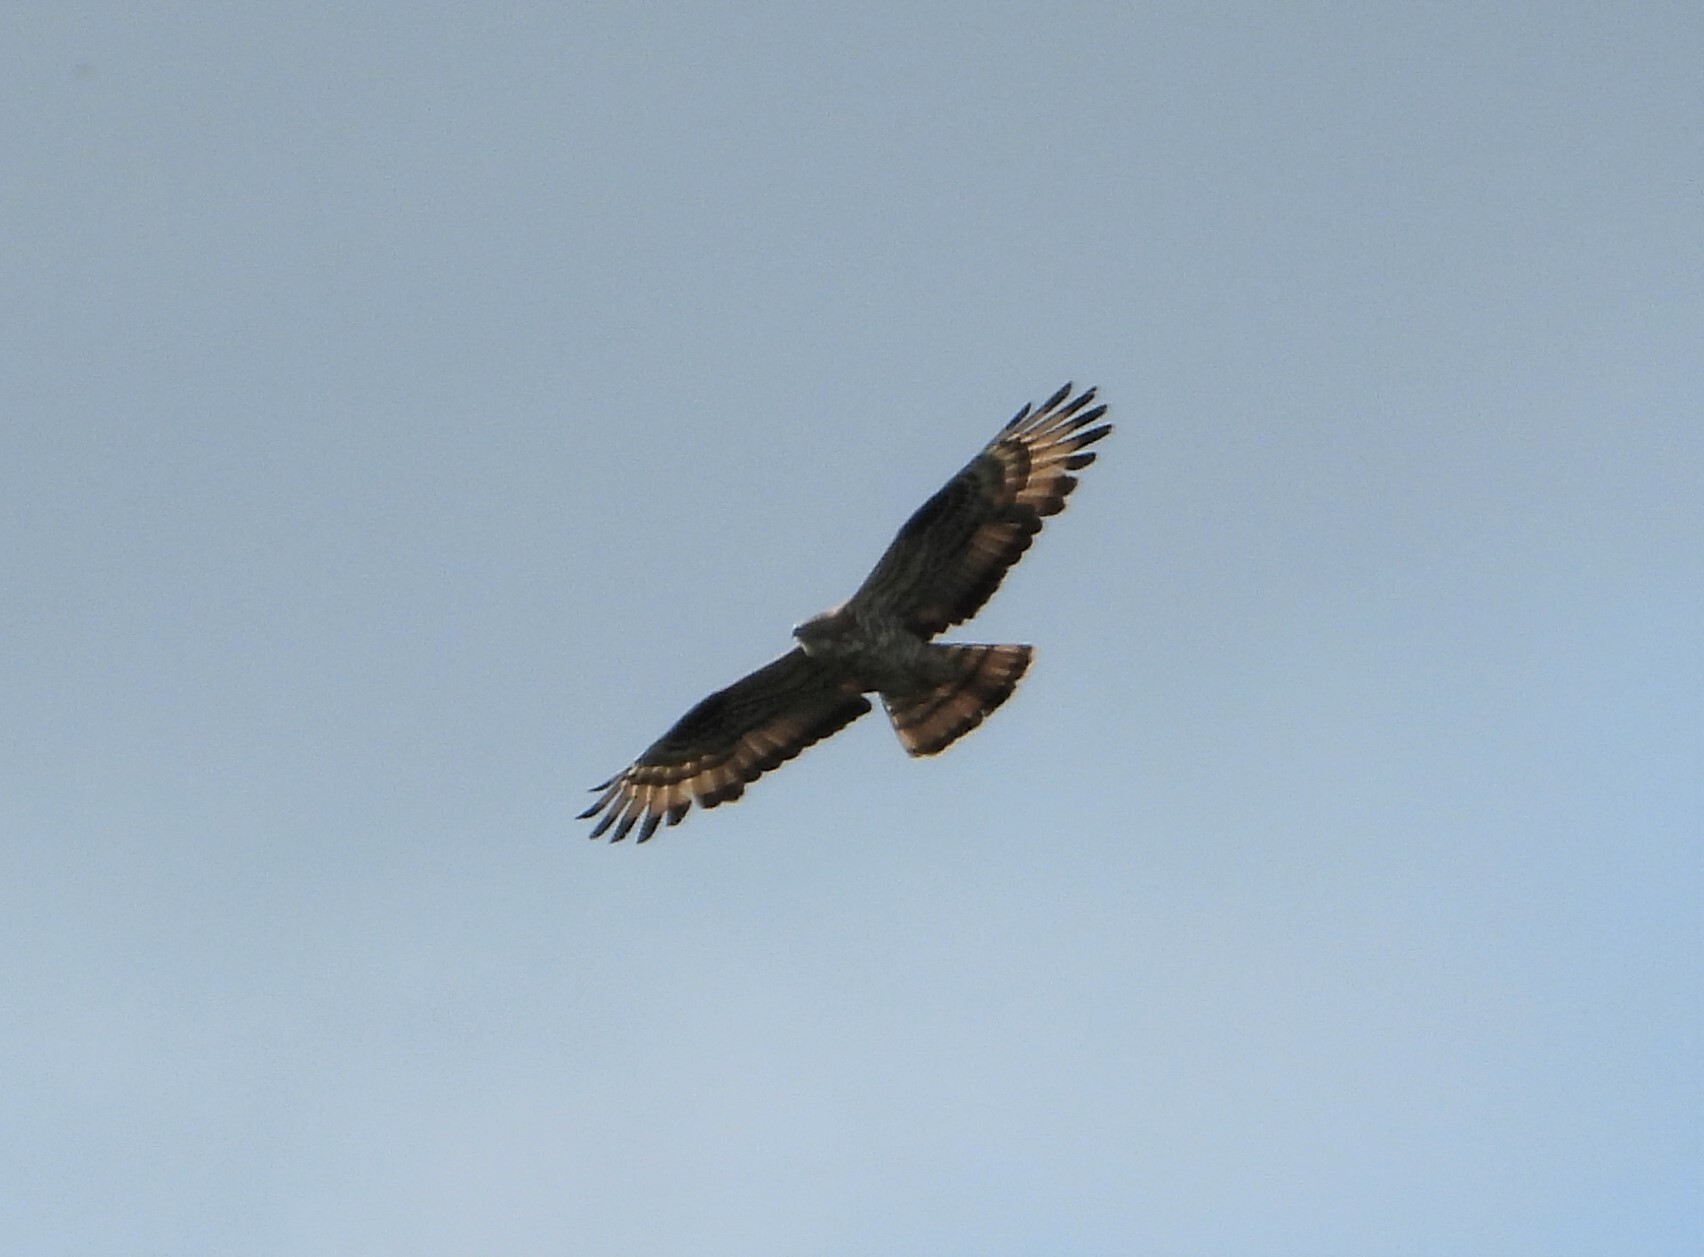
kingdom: Animalia
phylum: Chordata
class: Aves
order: Accipitriformes
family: Accipitridae
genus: Pernis
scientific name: Pernis apivorus
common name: European honey buzzard
